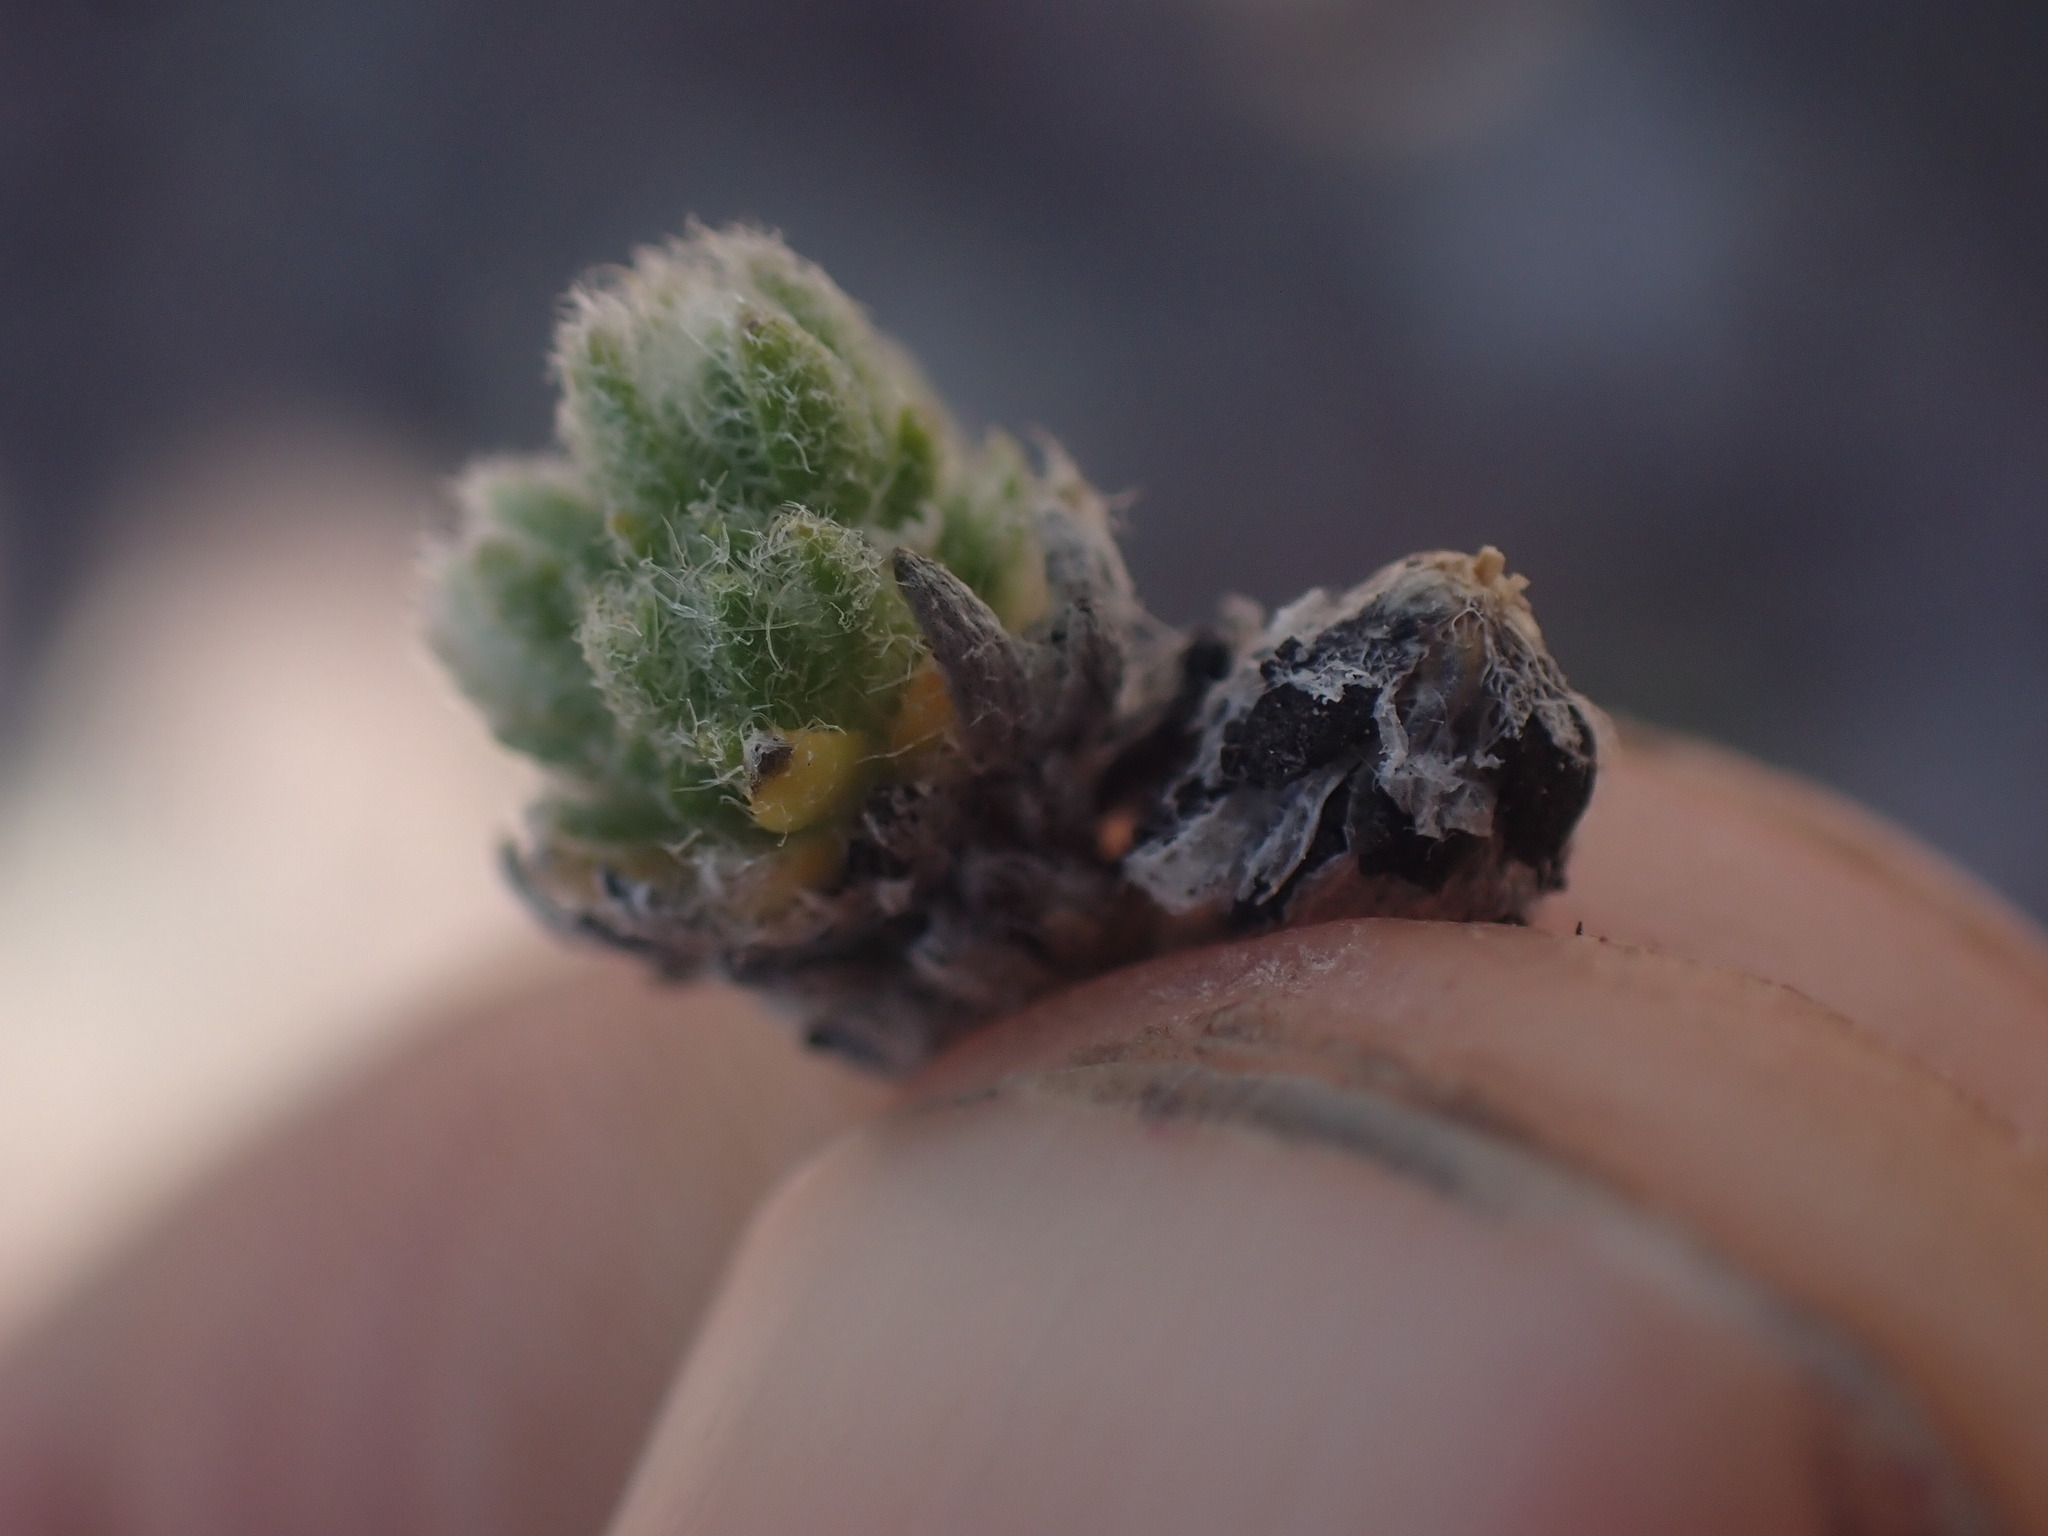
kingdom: Plantae
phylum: Tracheophyta
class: Magnoliopsida
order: Brassicales
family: Brassicaceae
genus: Draba
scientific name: Draba oligosperma
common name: Few-seed draba
